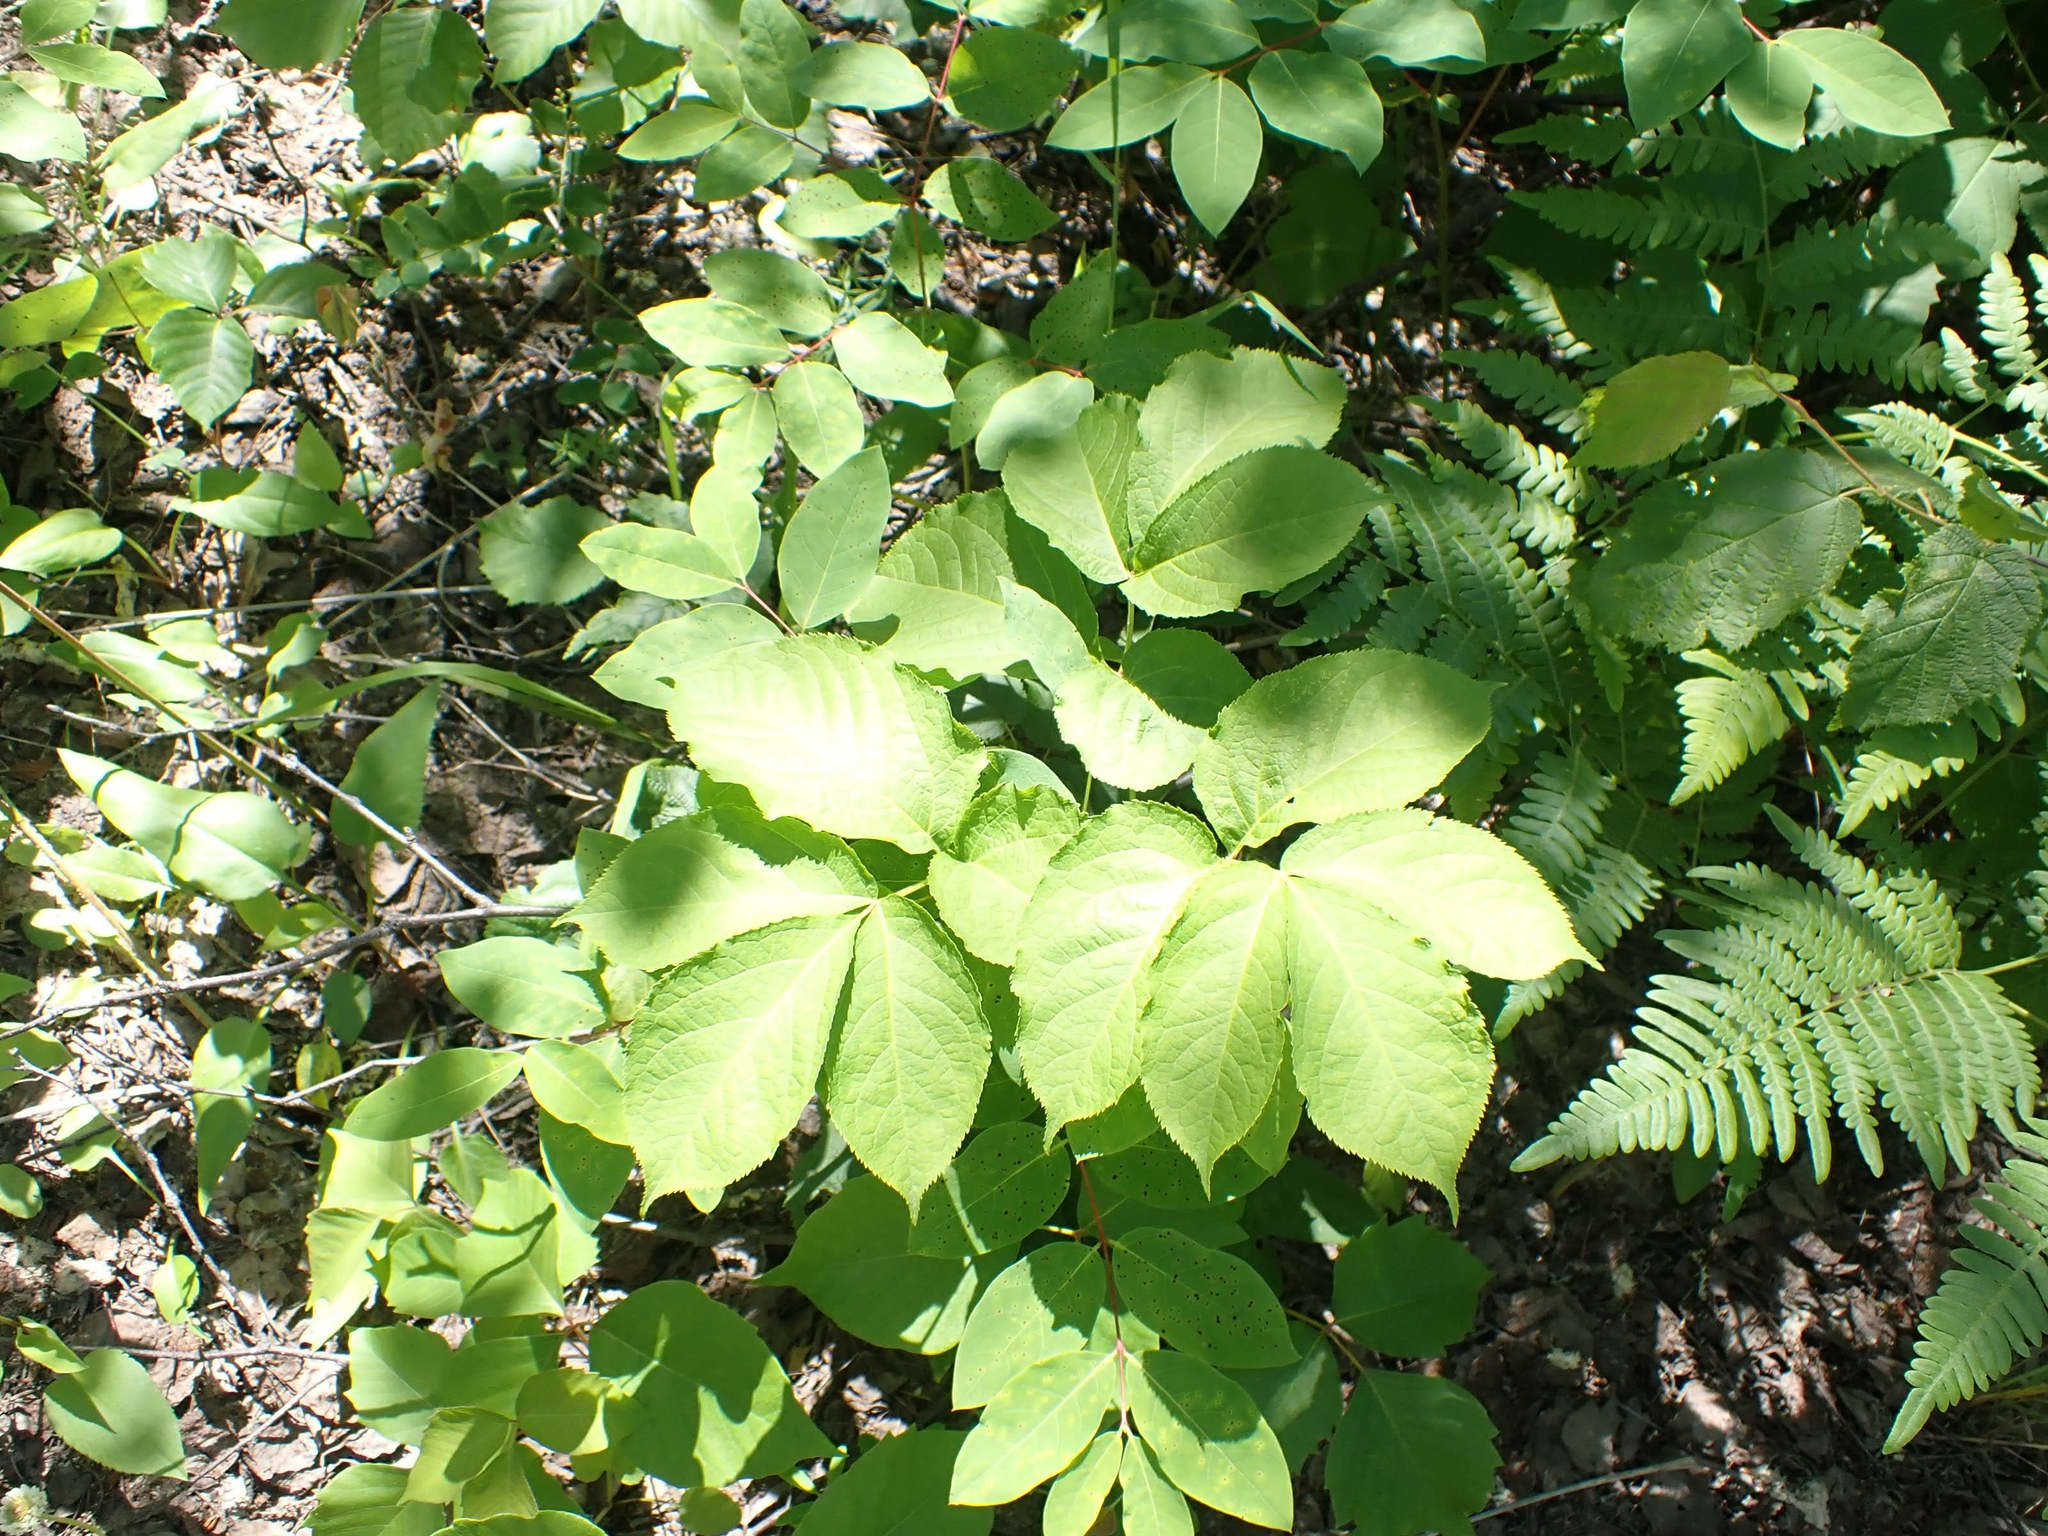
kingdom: Plantae
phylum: Tracheophyta
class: Magnoliopsida
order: Apiales
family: Araliaceae
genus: Aralia
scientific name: Aralia nudicaulis
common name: Wild sarsaparilla
